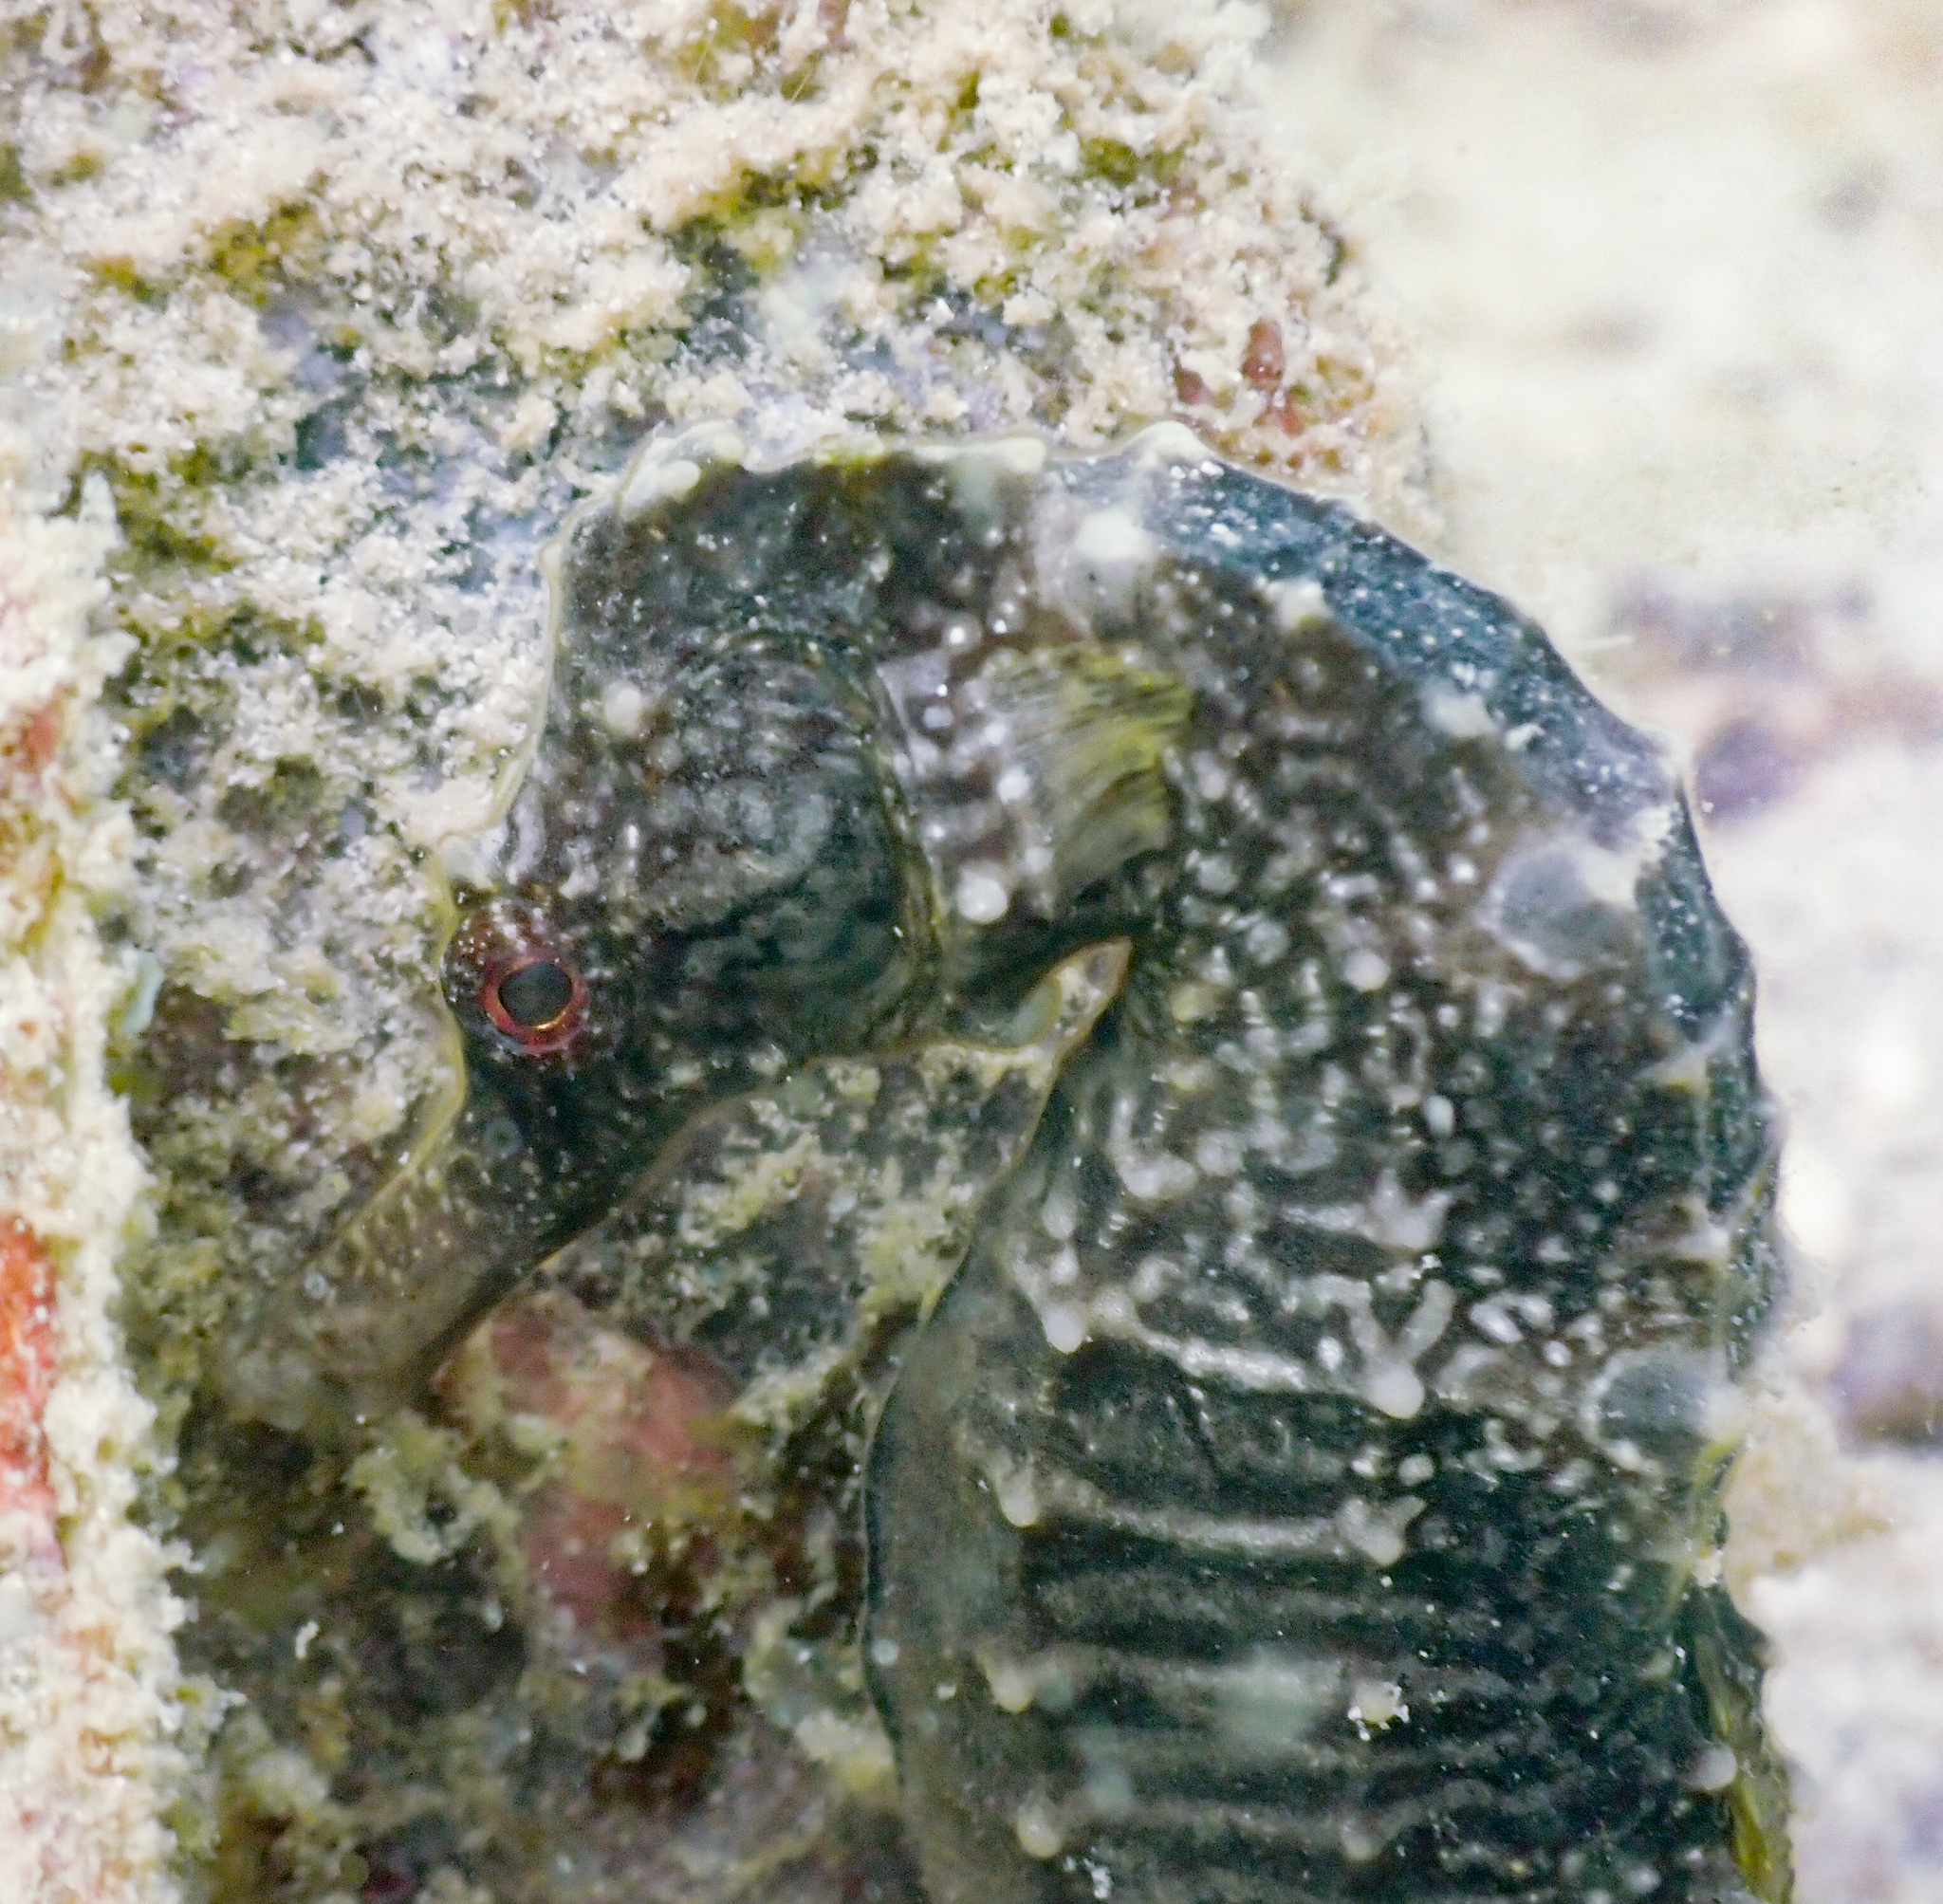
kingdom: Animalia
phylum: Chordata
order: Syngnathiformes
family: Syngnathidae
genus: Hippocampus
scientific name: Hippocampus kuda
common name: Spotted seahorse
